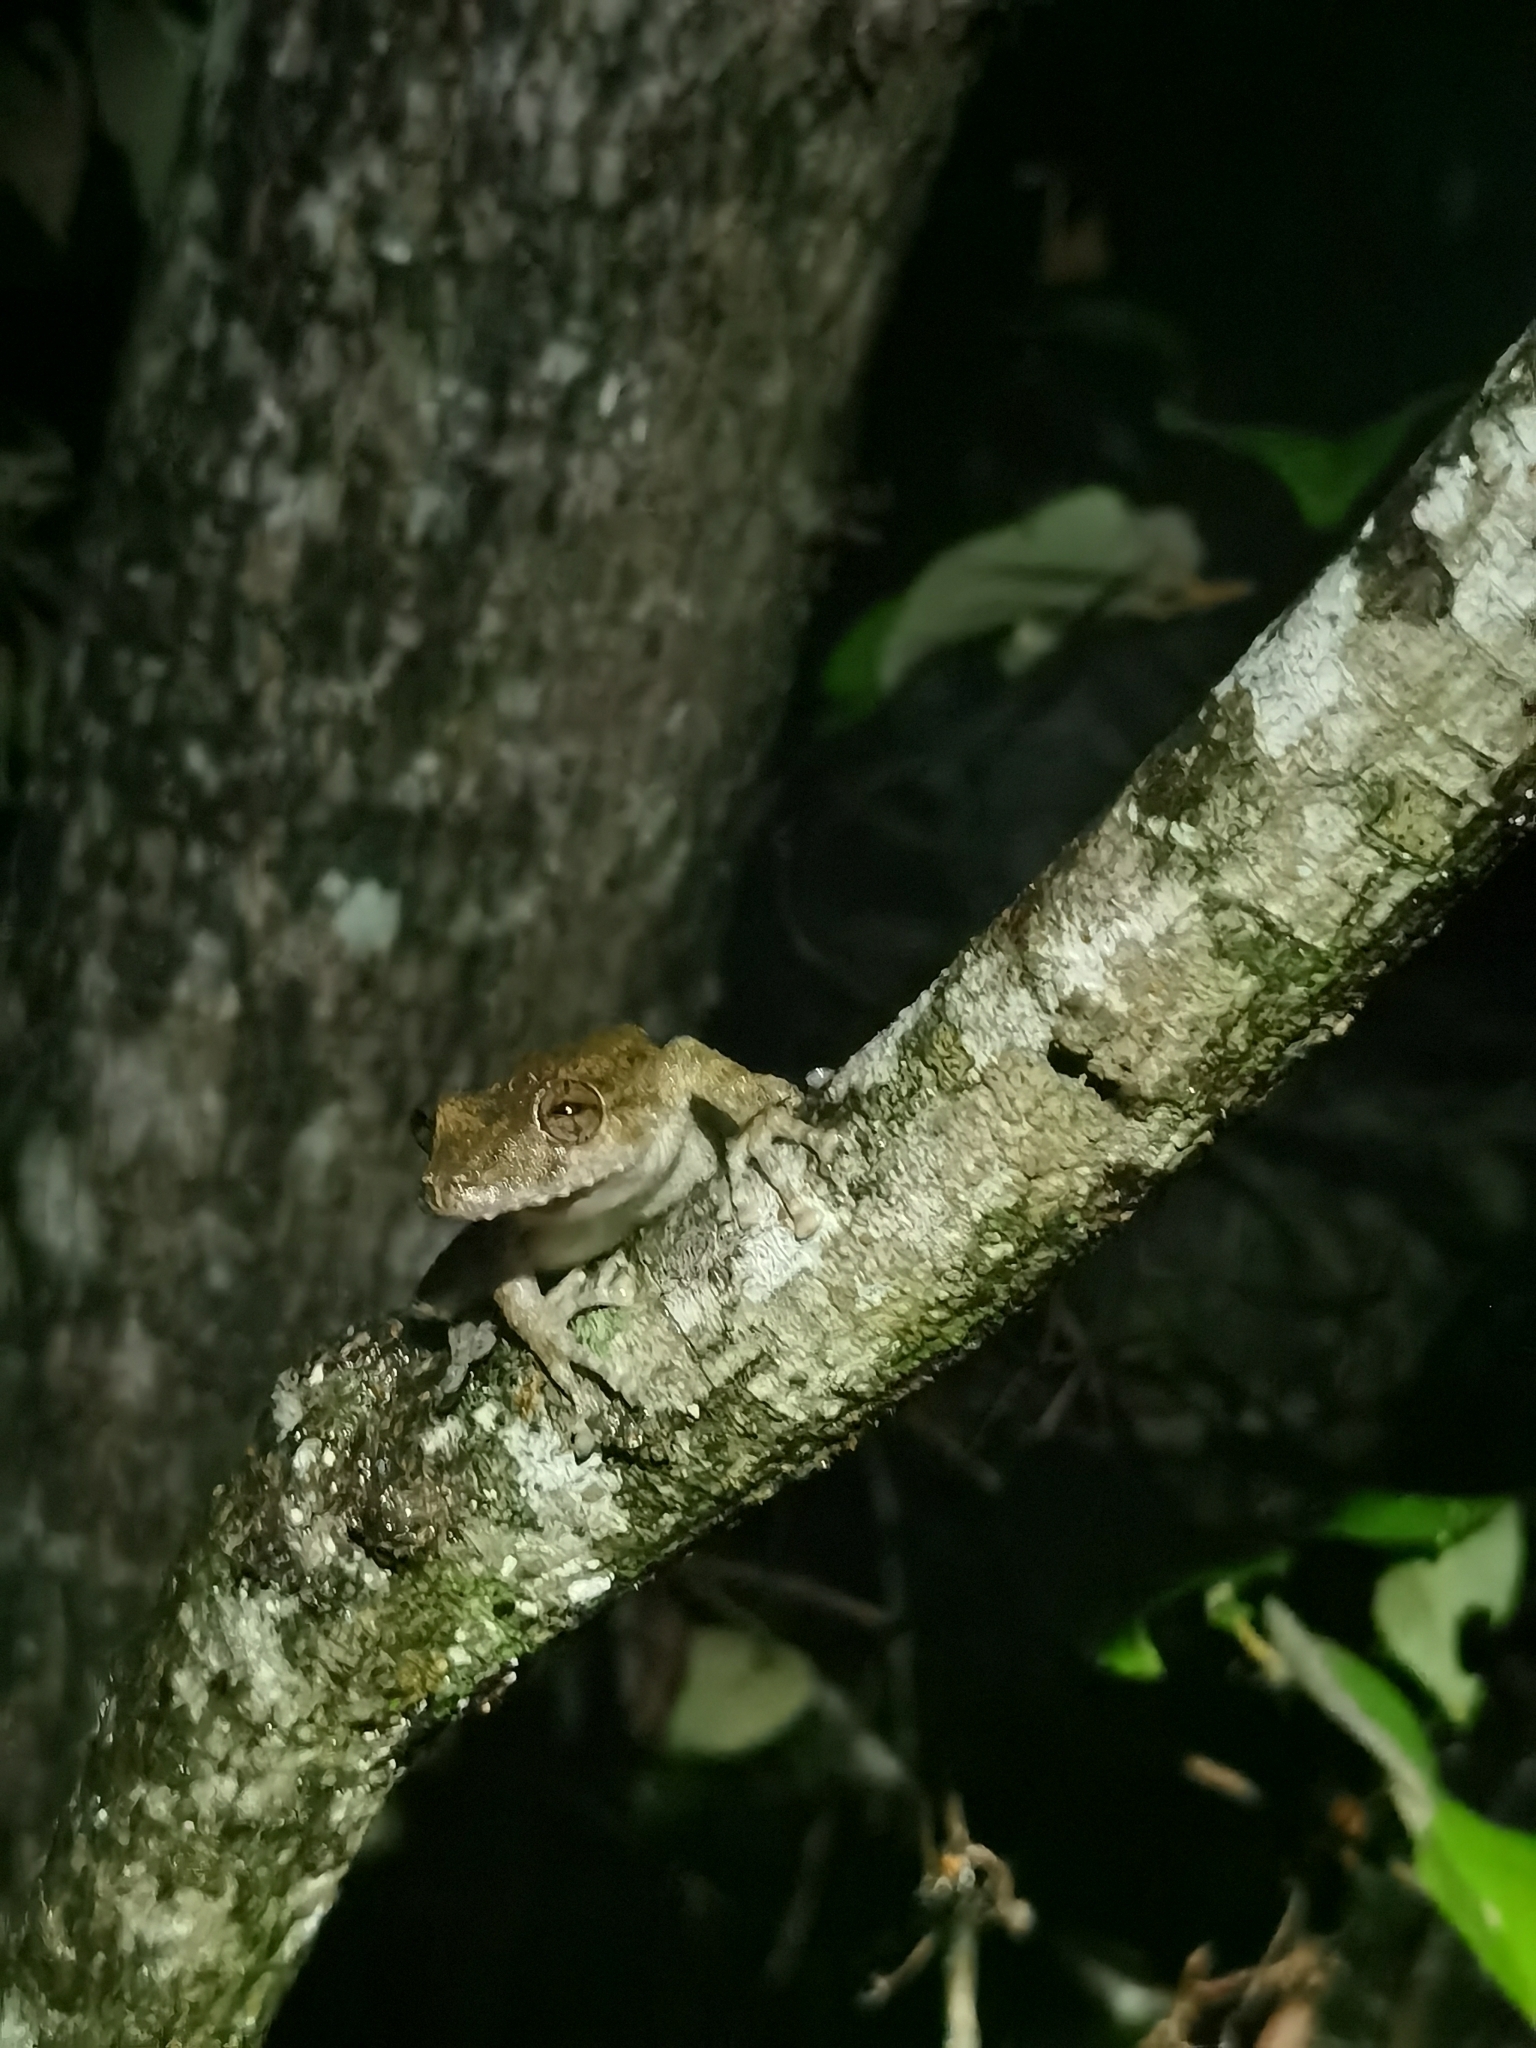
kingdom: Animalia
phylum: Chordata
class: Amphibia
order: Anura
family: Hylidae
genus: Scinax
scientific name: Scinax boulengeri
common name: Boulenger's snouted treefrog
